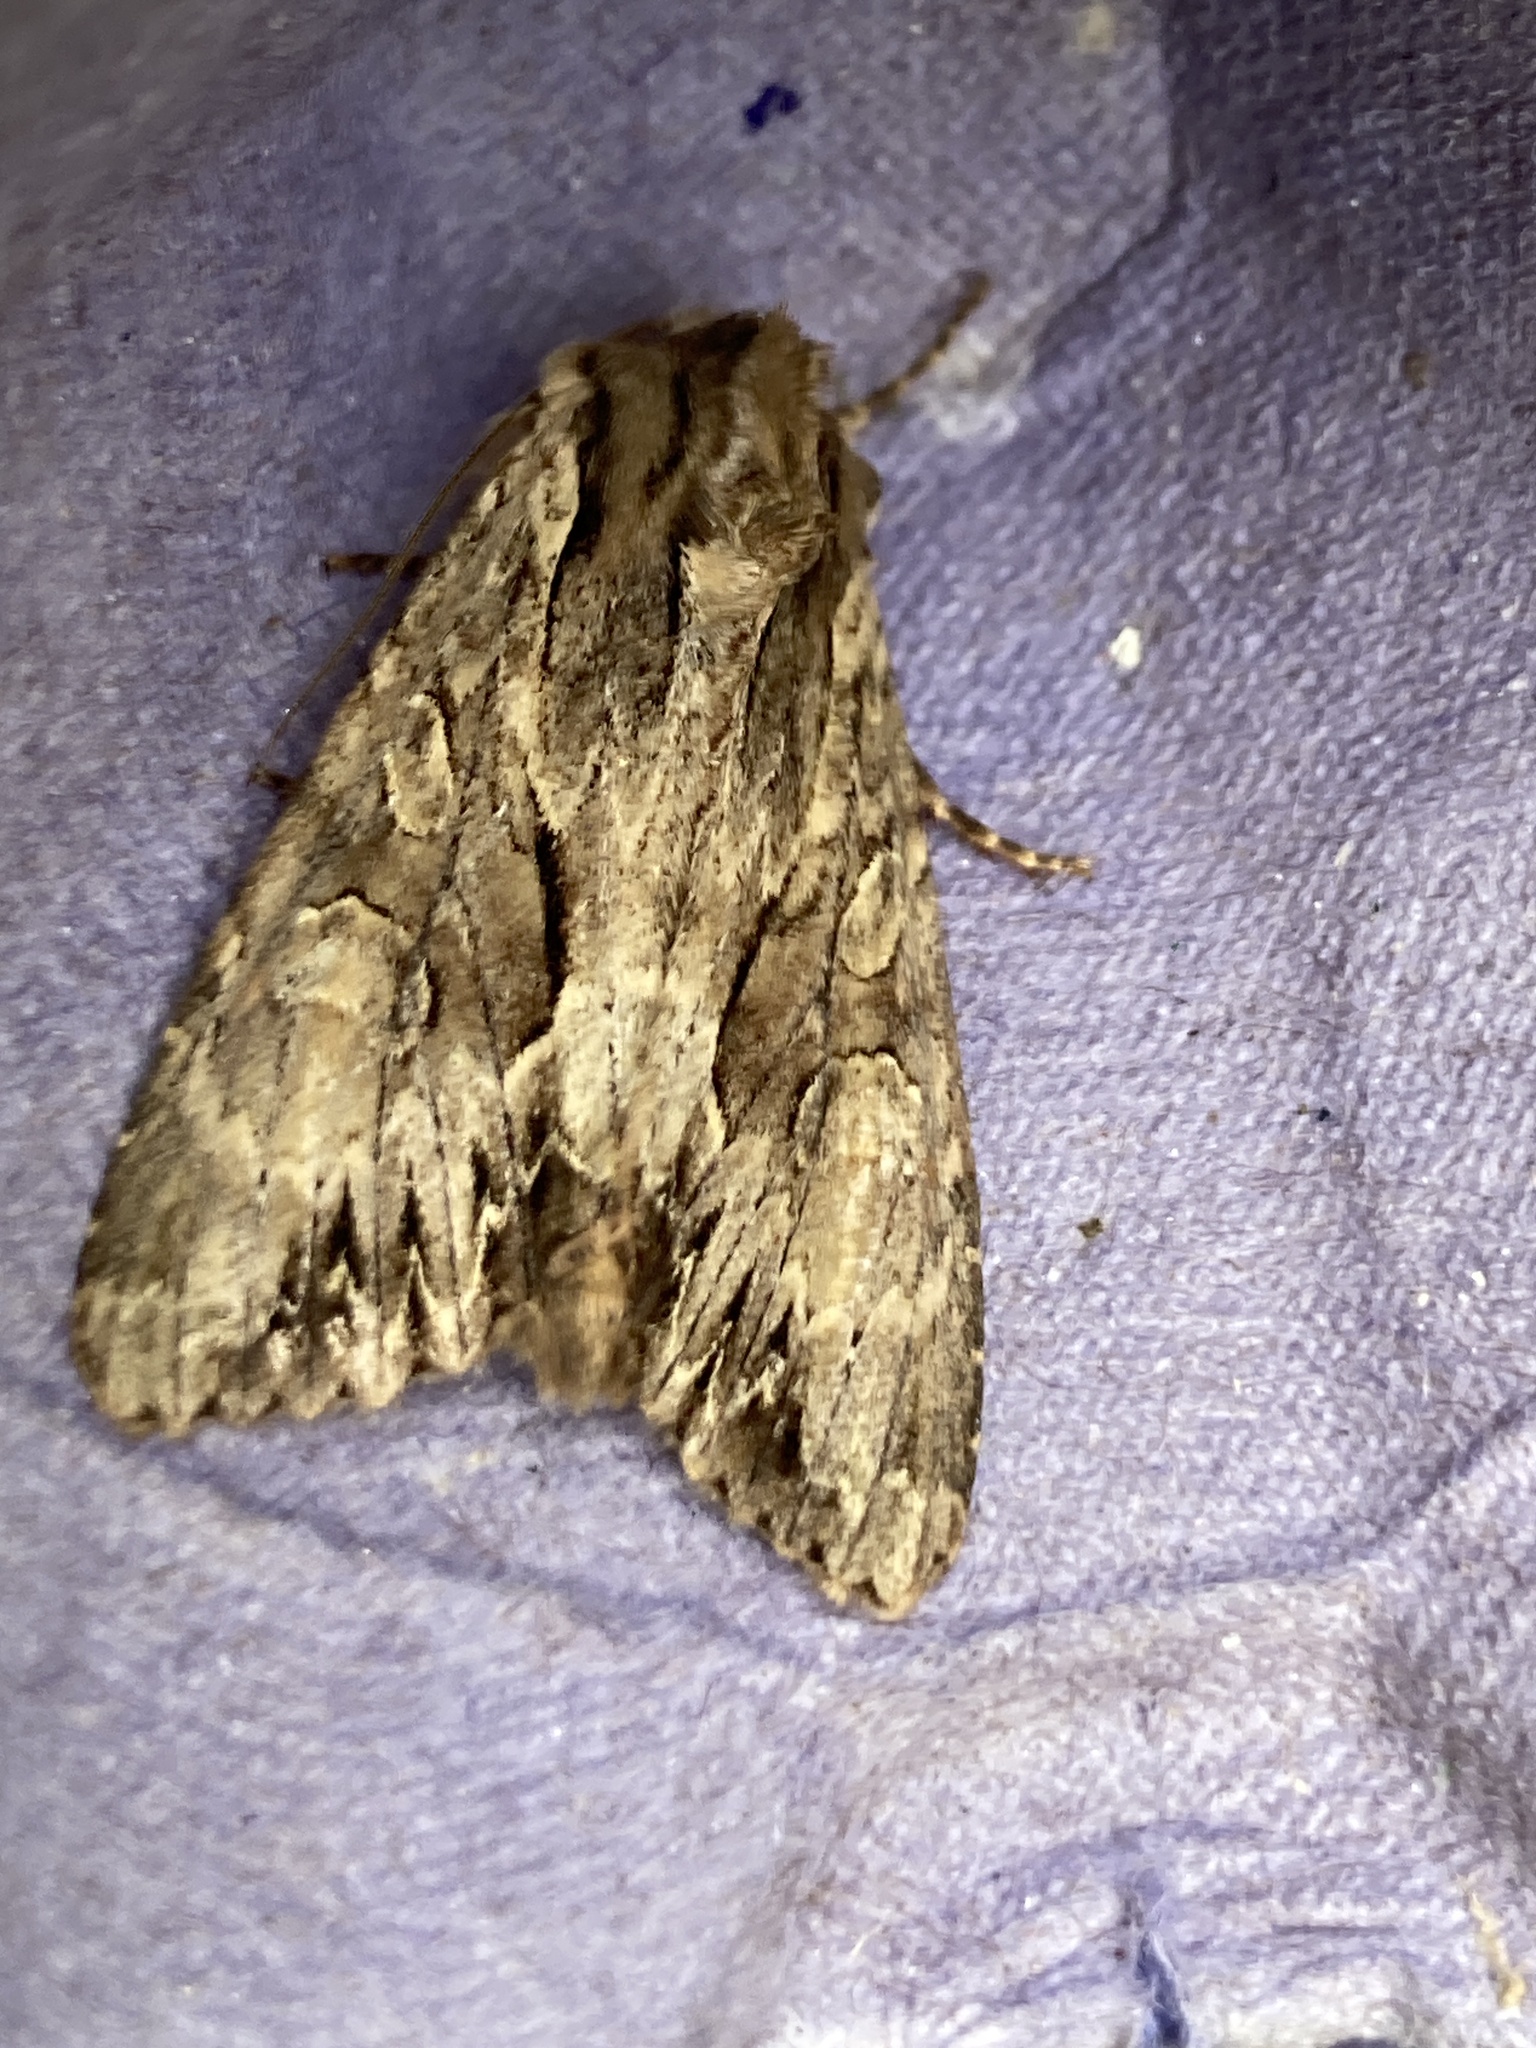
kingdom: Animalia
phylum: Arthropoda
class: Insecta
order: Lepidoptera
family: Noctuidae
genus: Apamea
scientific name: Apamea monoglypha
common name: Dark arches
